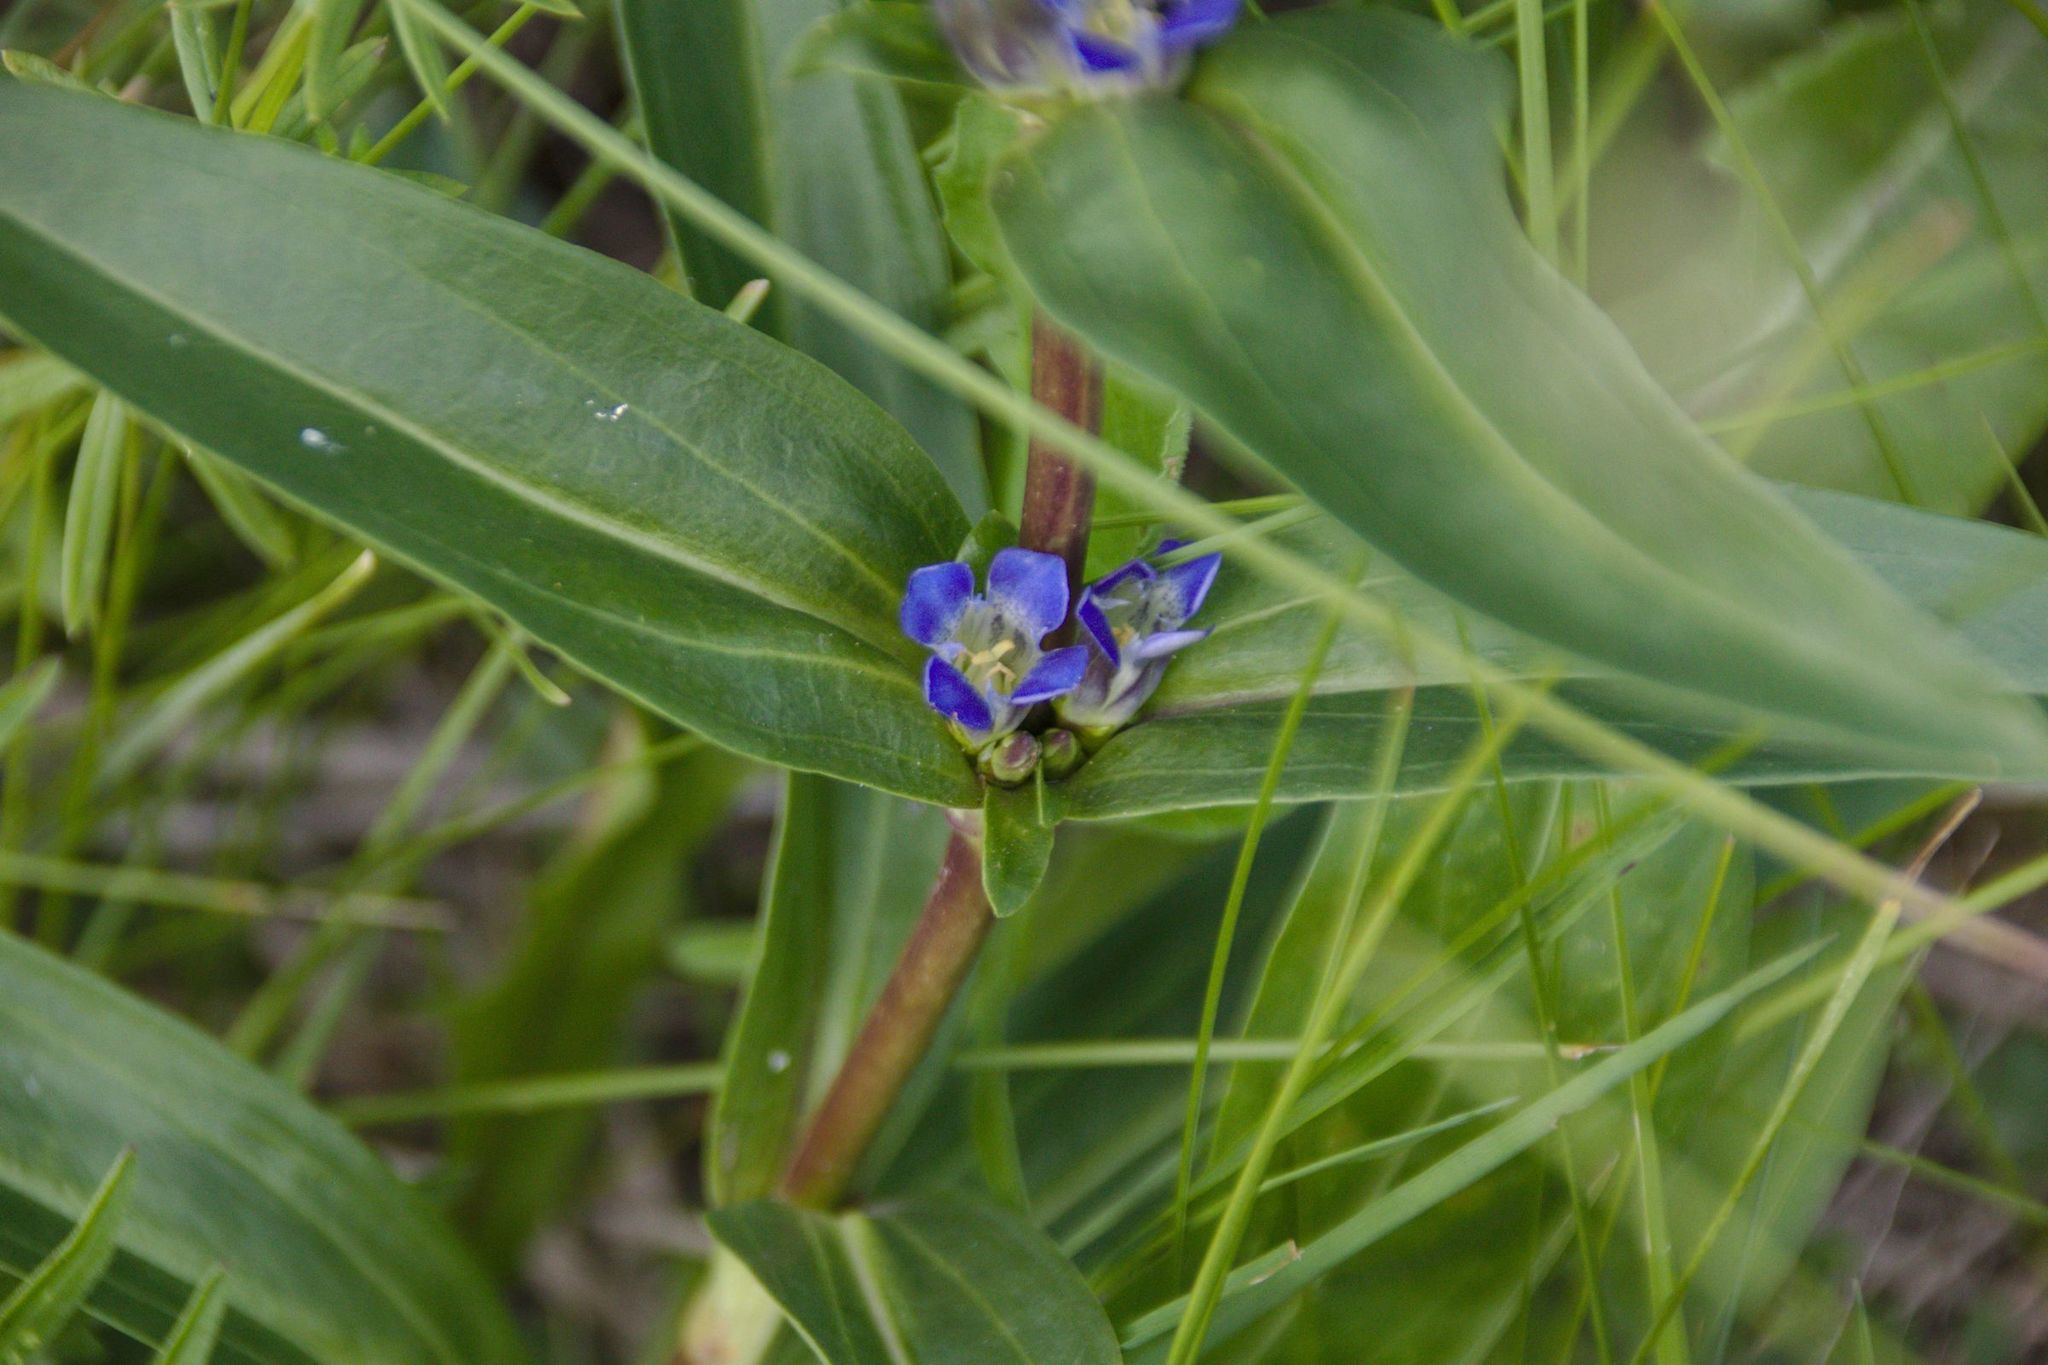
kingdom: Plantae
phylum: Tracheophyta
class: Magnoliopsida
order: Gentianales
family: Gentianaceae
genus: Gentiana
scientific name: Gentiana cruciata
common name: Cross gentian
